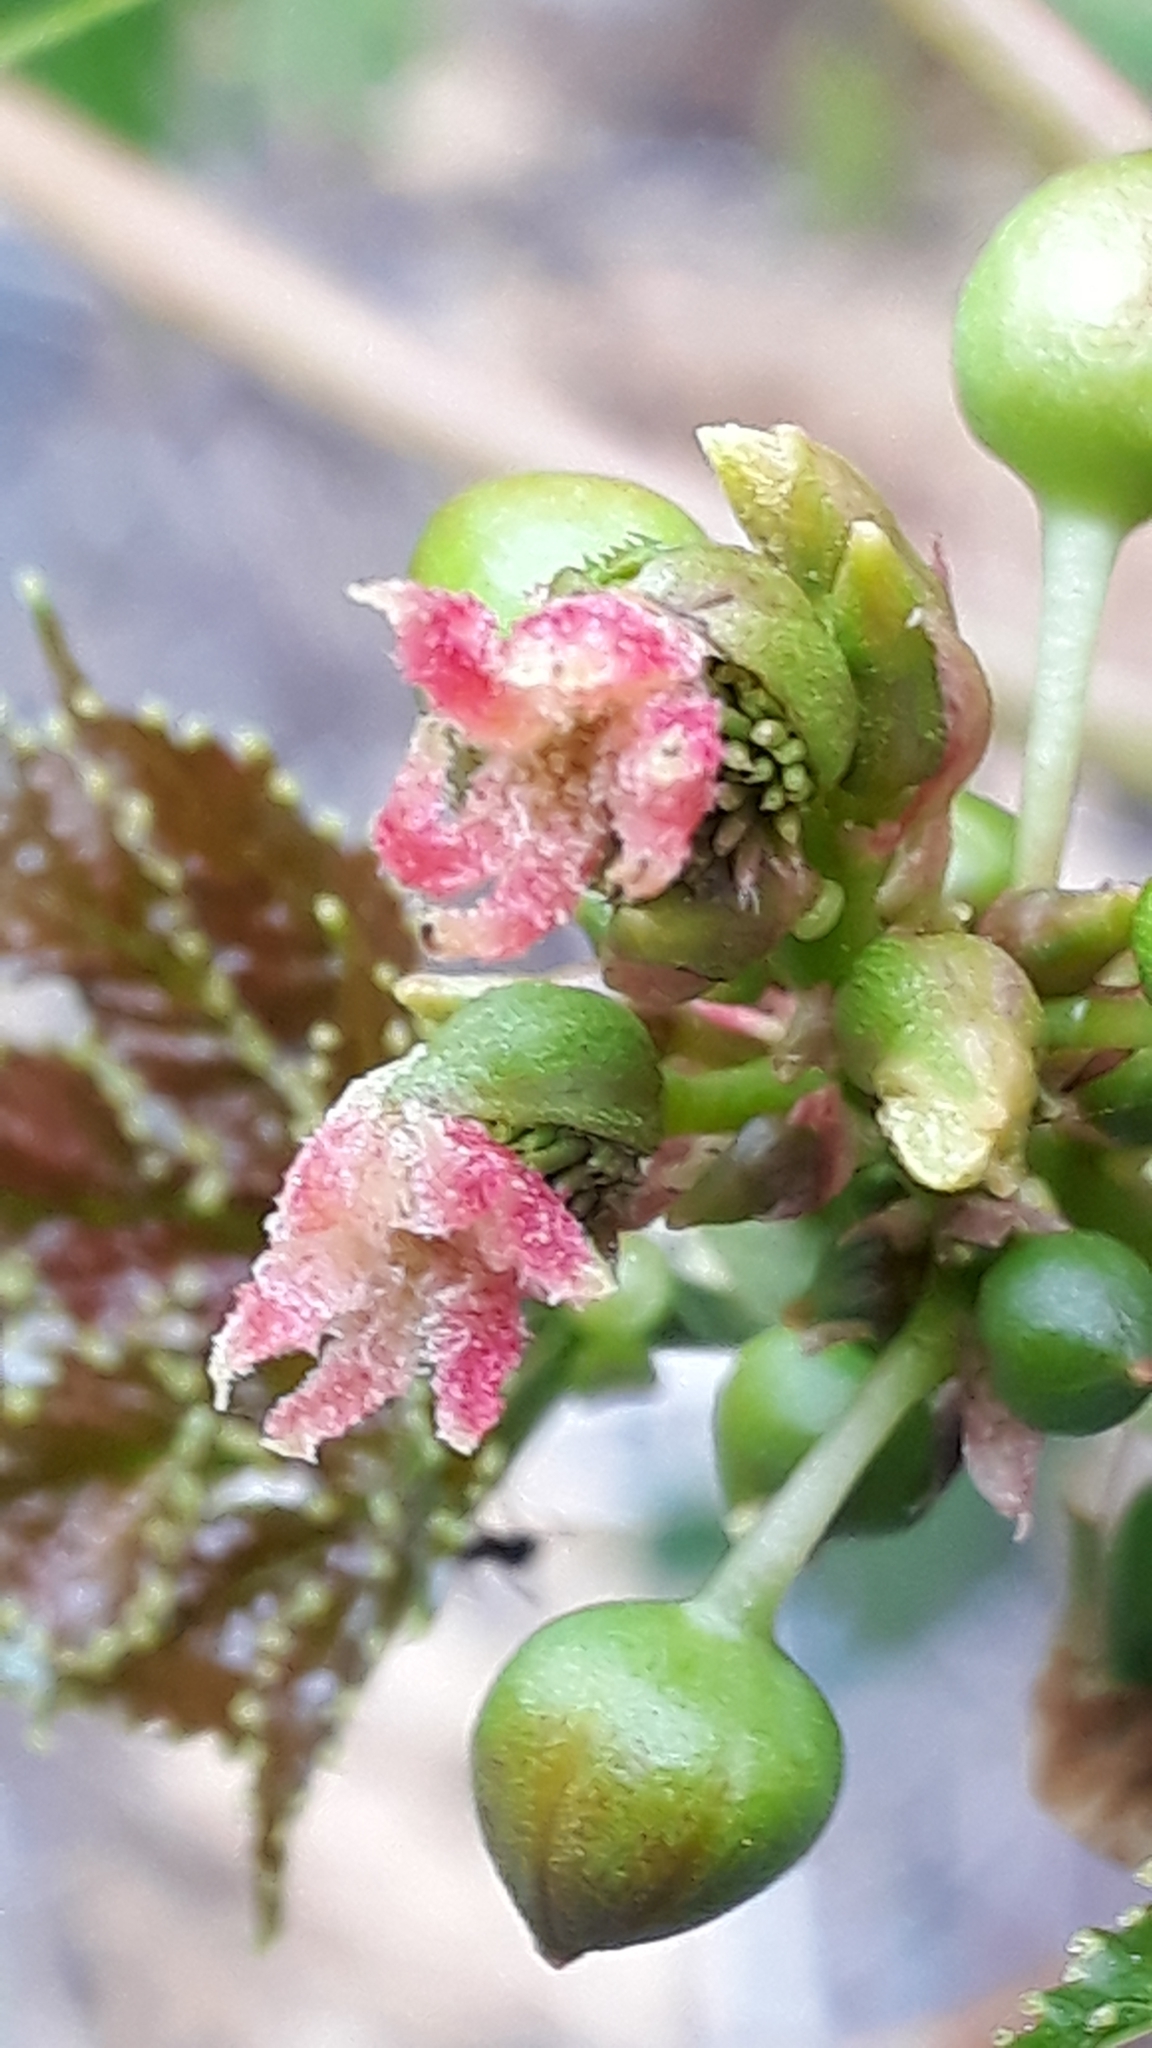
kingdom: Plantae
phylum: Tracheophyta
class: Magnoliopsida
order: Malpighiales
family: Euphorbiaceae
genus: Ricinus
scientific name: Ricinus communis
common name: Castor-oil-plant
